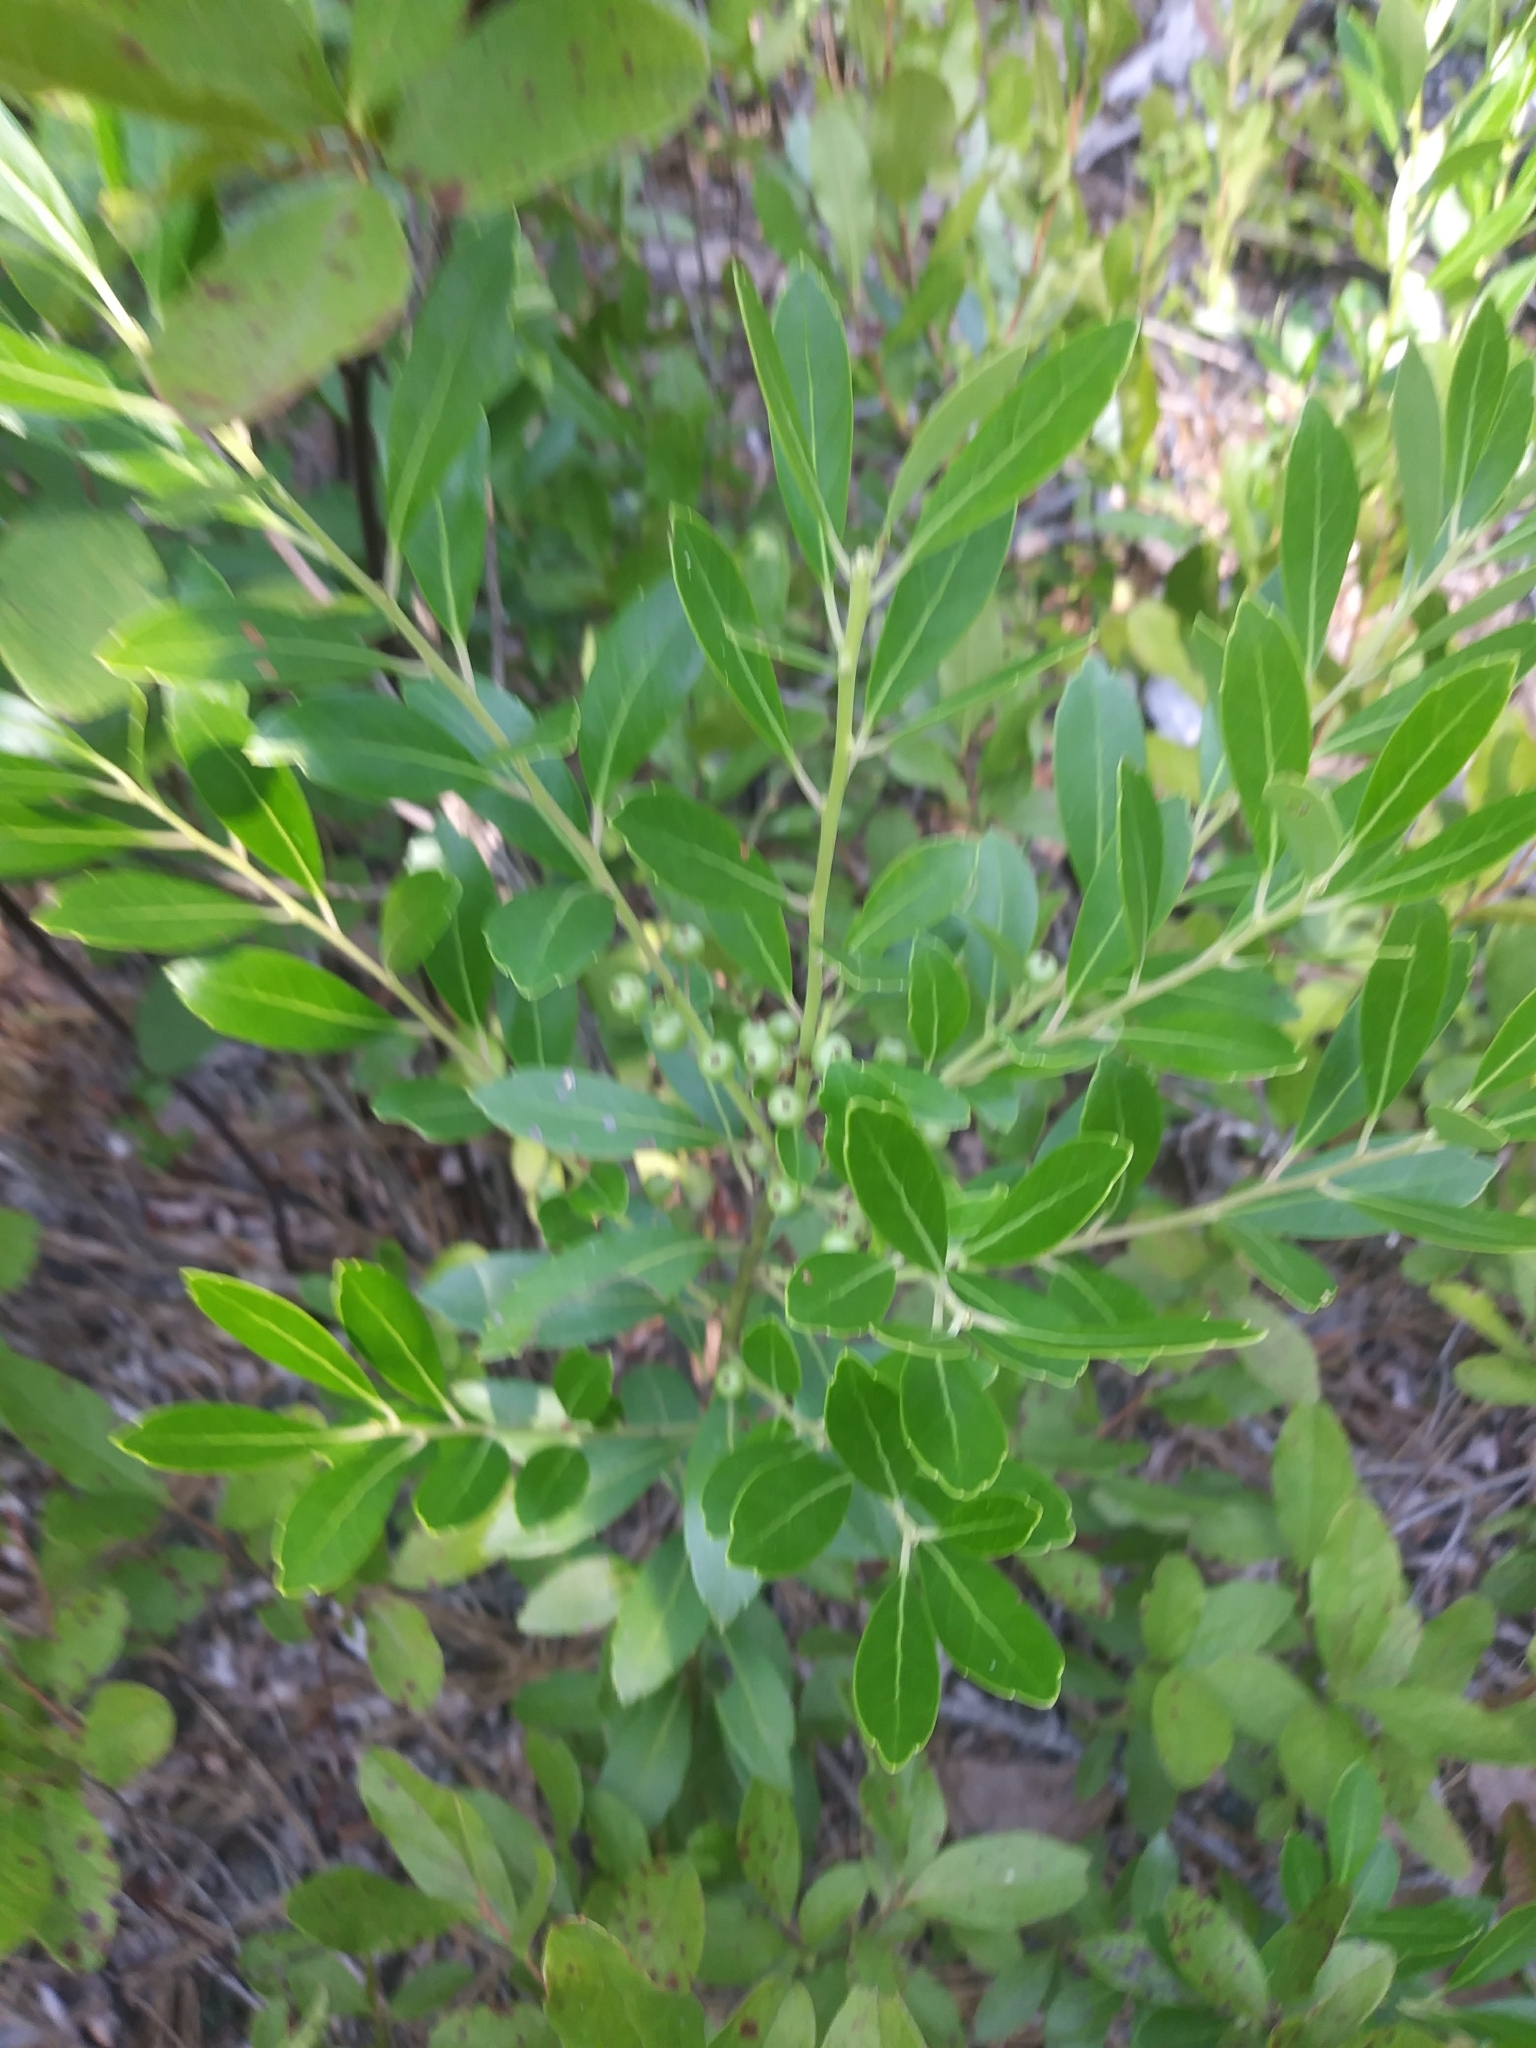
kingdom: Plantae
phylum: Tracheophyta
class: Magnoliopsida
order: Aquifoliales
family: Aquifoliaceae
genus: Ilex
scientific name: Ilex glabra
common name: Bitter gallberry
